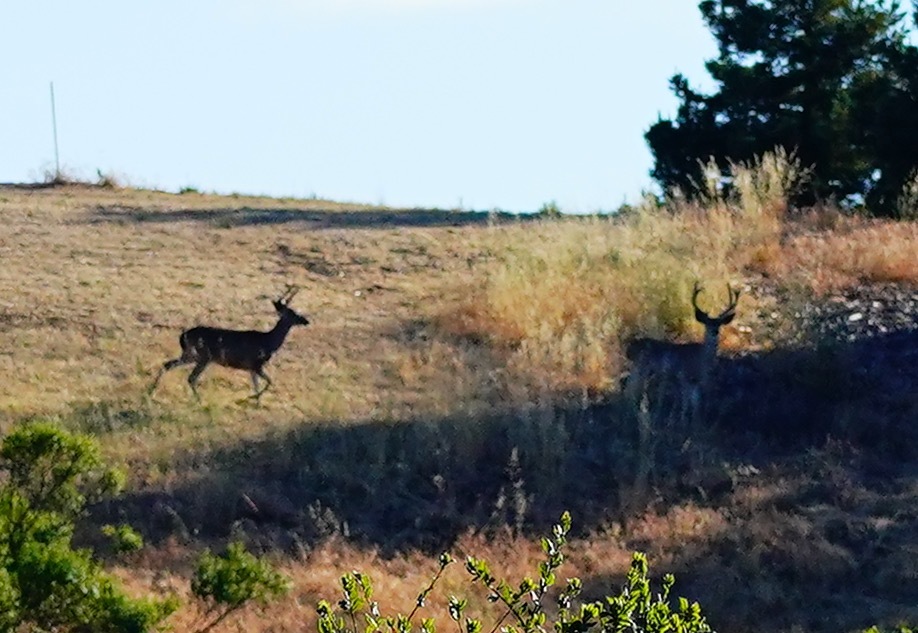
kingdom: Animalia
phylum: Chordata
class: Mammalia
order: Artiodactyla
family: Cervidae
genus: Odocoileus
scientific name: Odocoileus hemionus
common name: Mule deer
